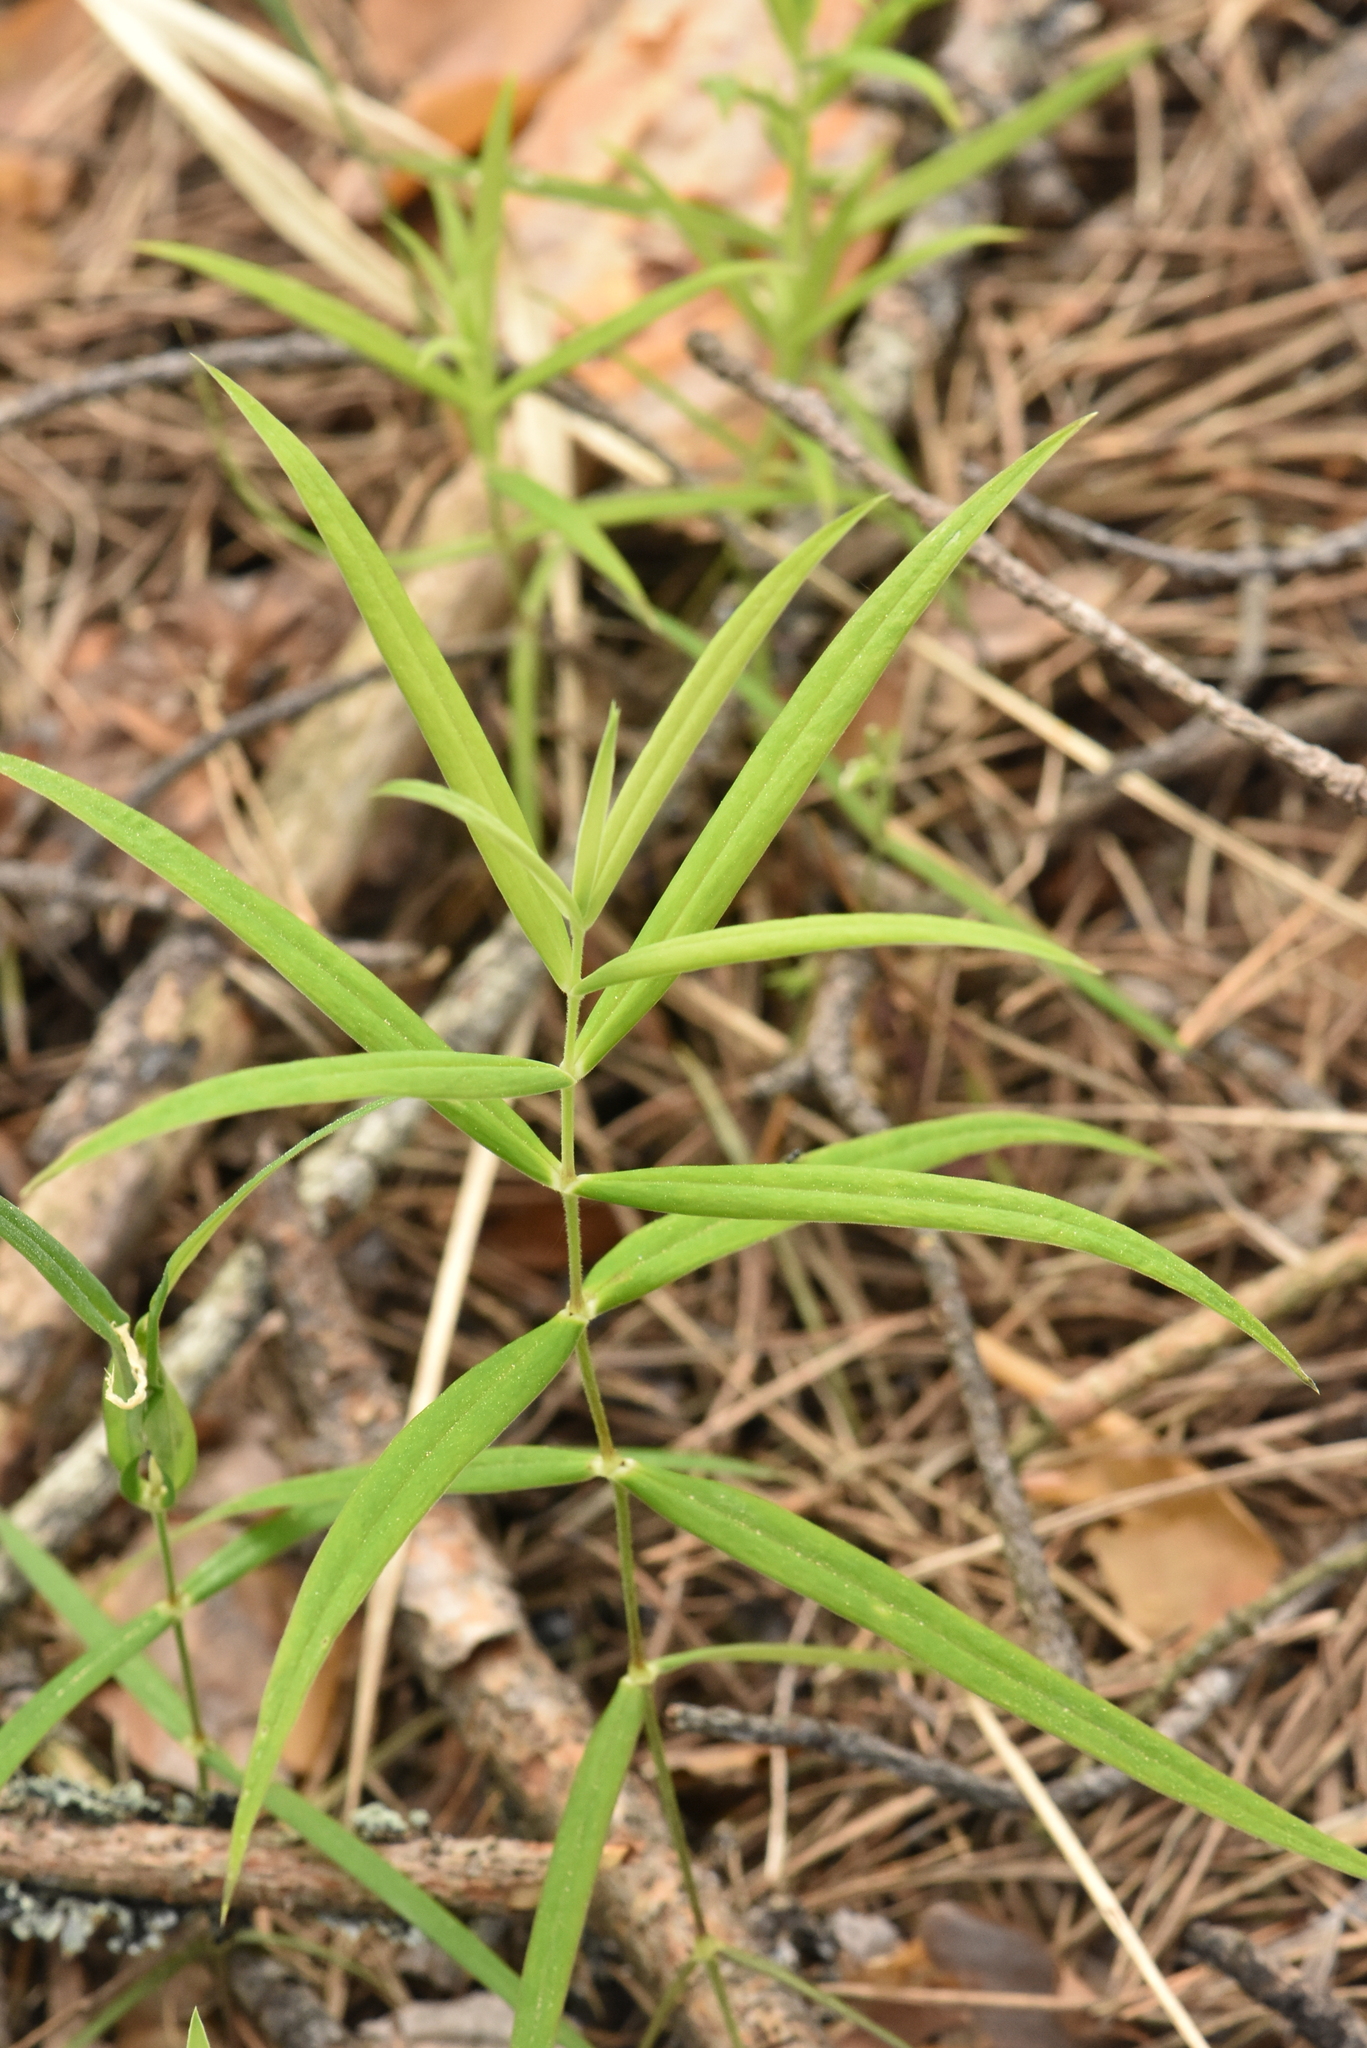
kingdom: Plantae
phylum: Tracheophyta
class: Magnoliopsida
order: Caryophyllales
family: Caryophyllaceae
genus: Rabelera
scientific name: Rabelera holostea
